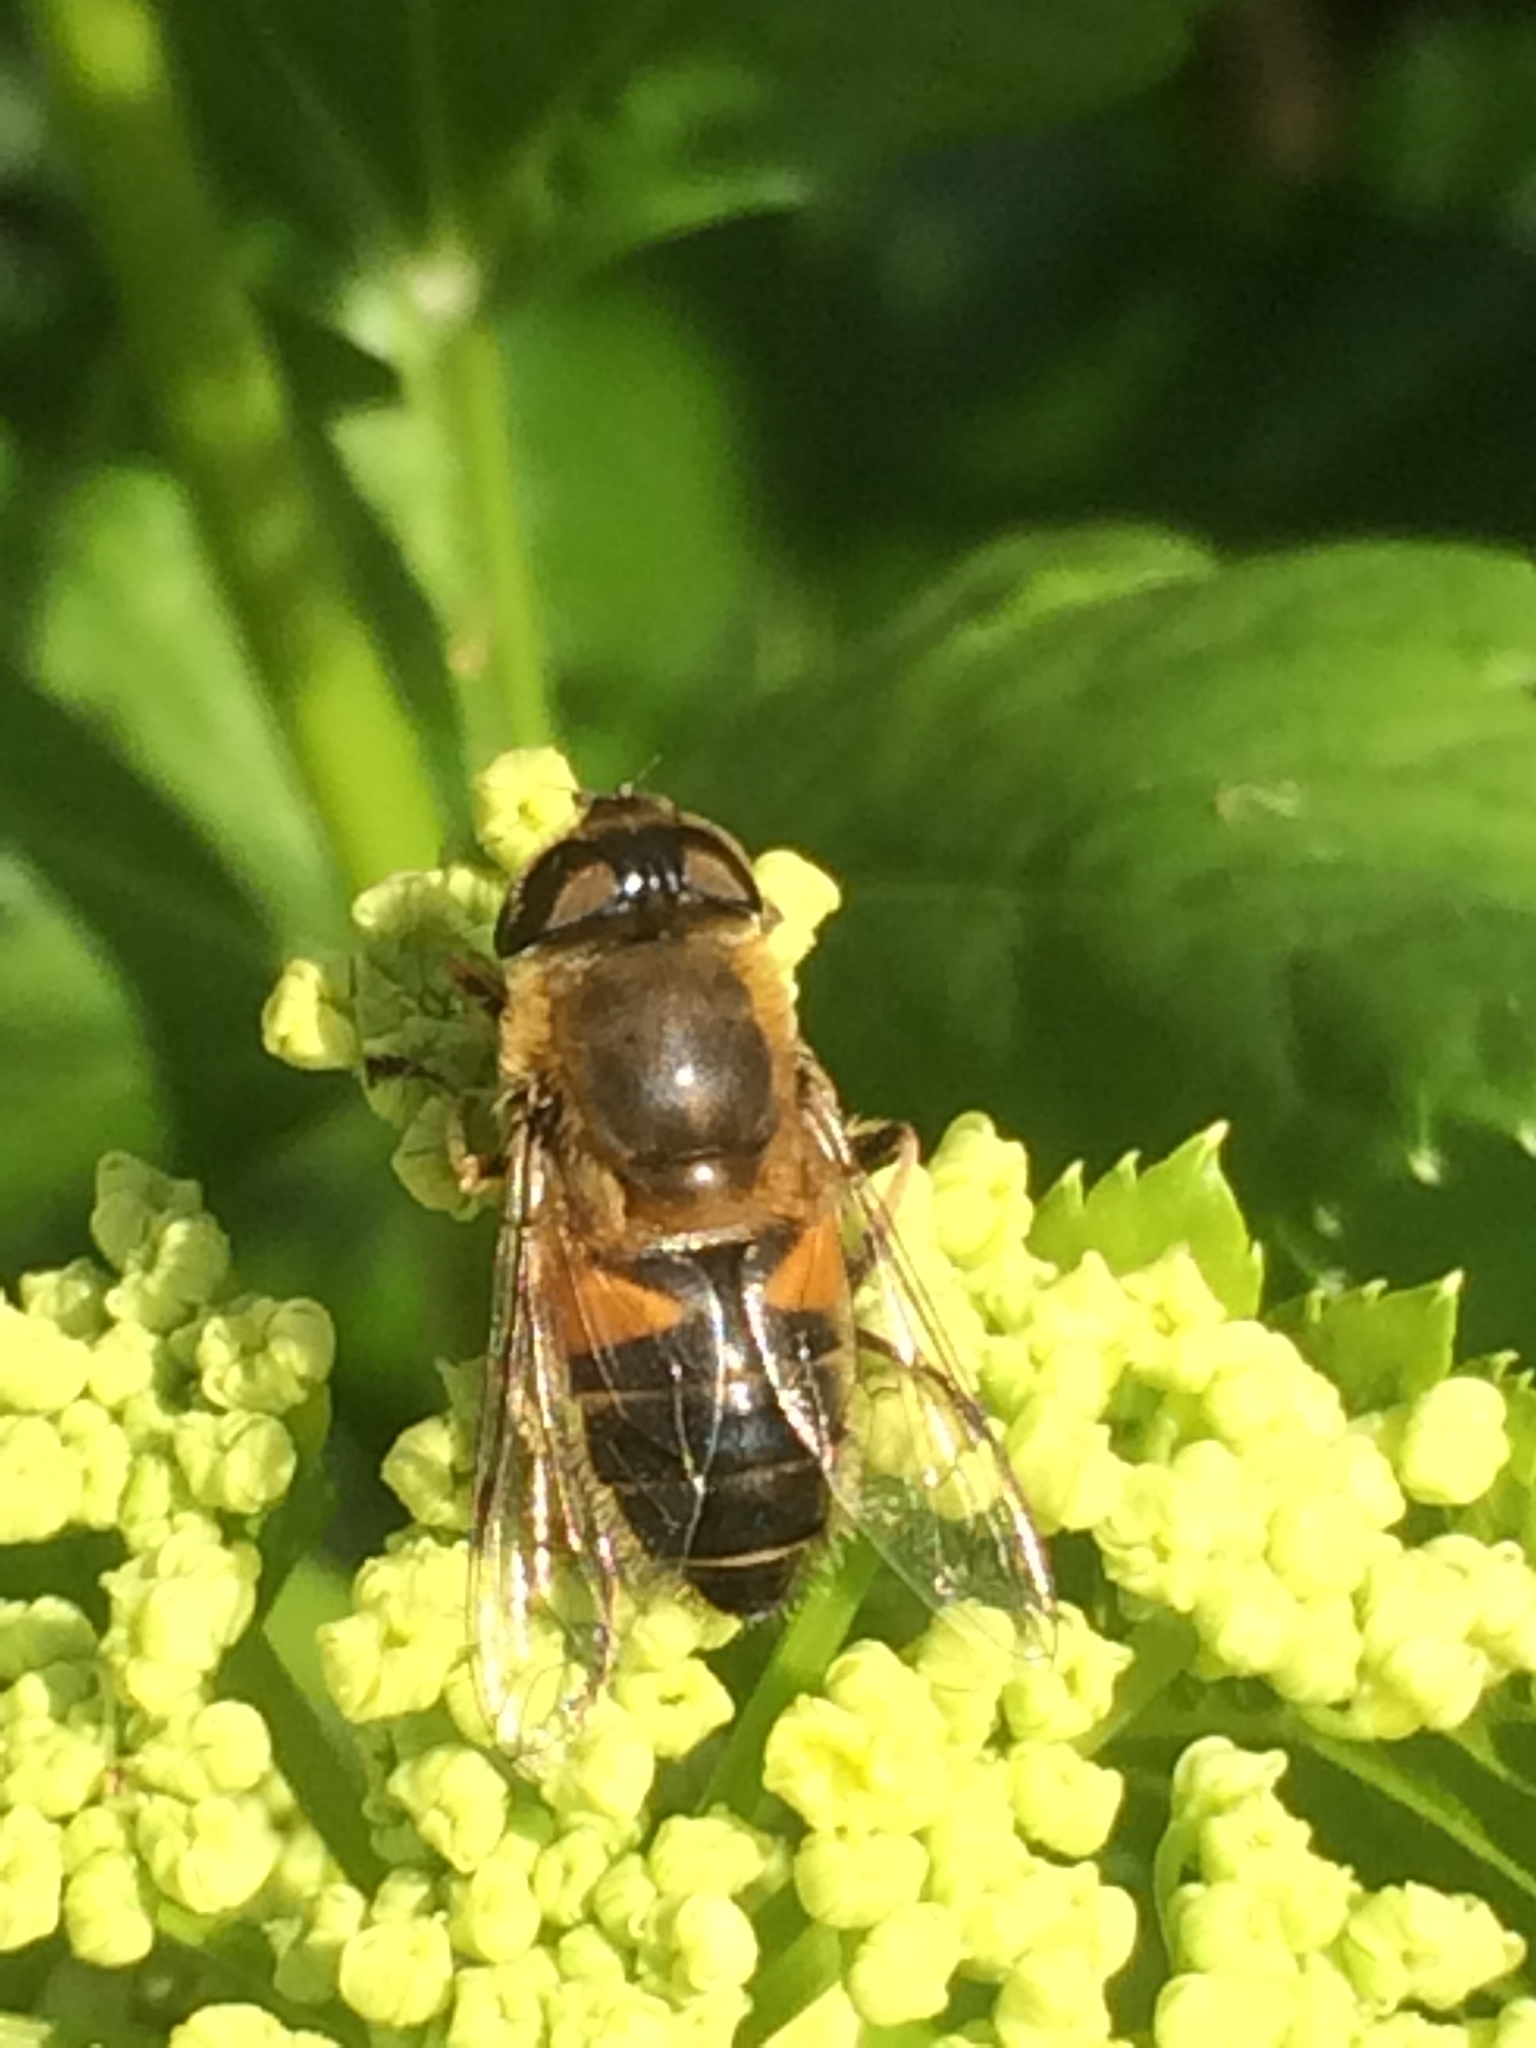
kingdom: Animalia
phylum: Arthropoda
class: Insecta
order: Diptera
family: Syrphidae
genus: Eristalis
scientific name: Eristalis pertinax
